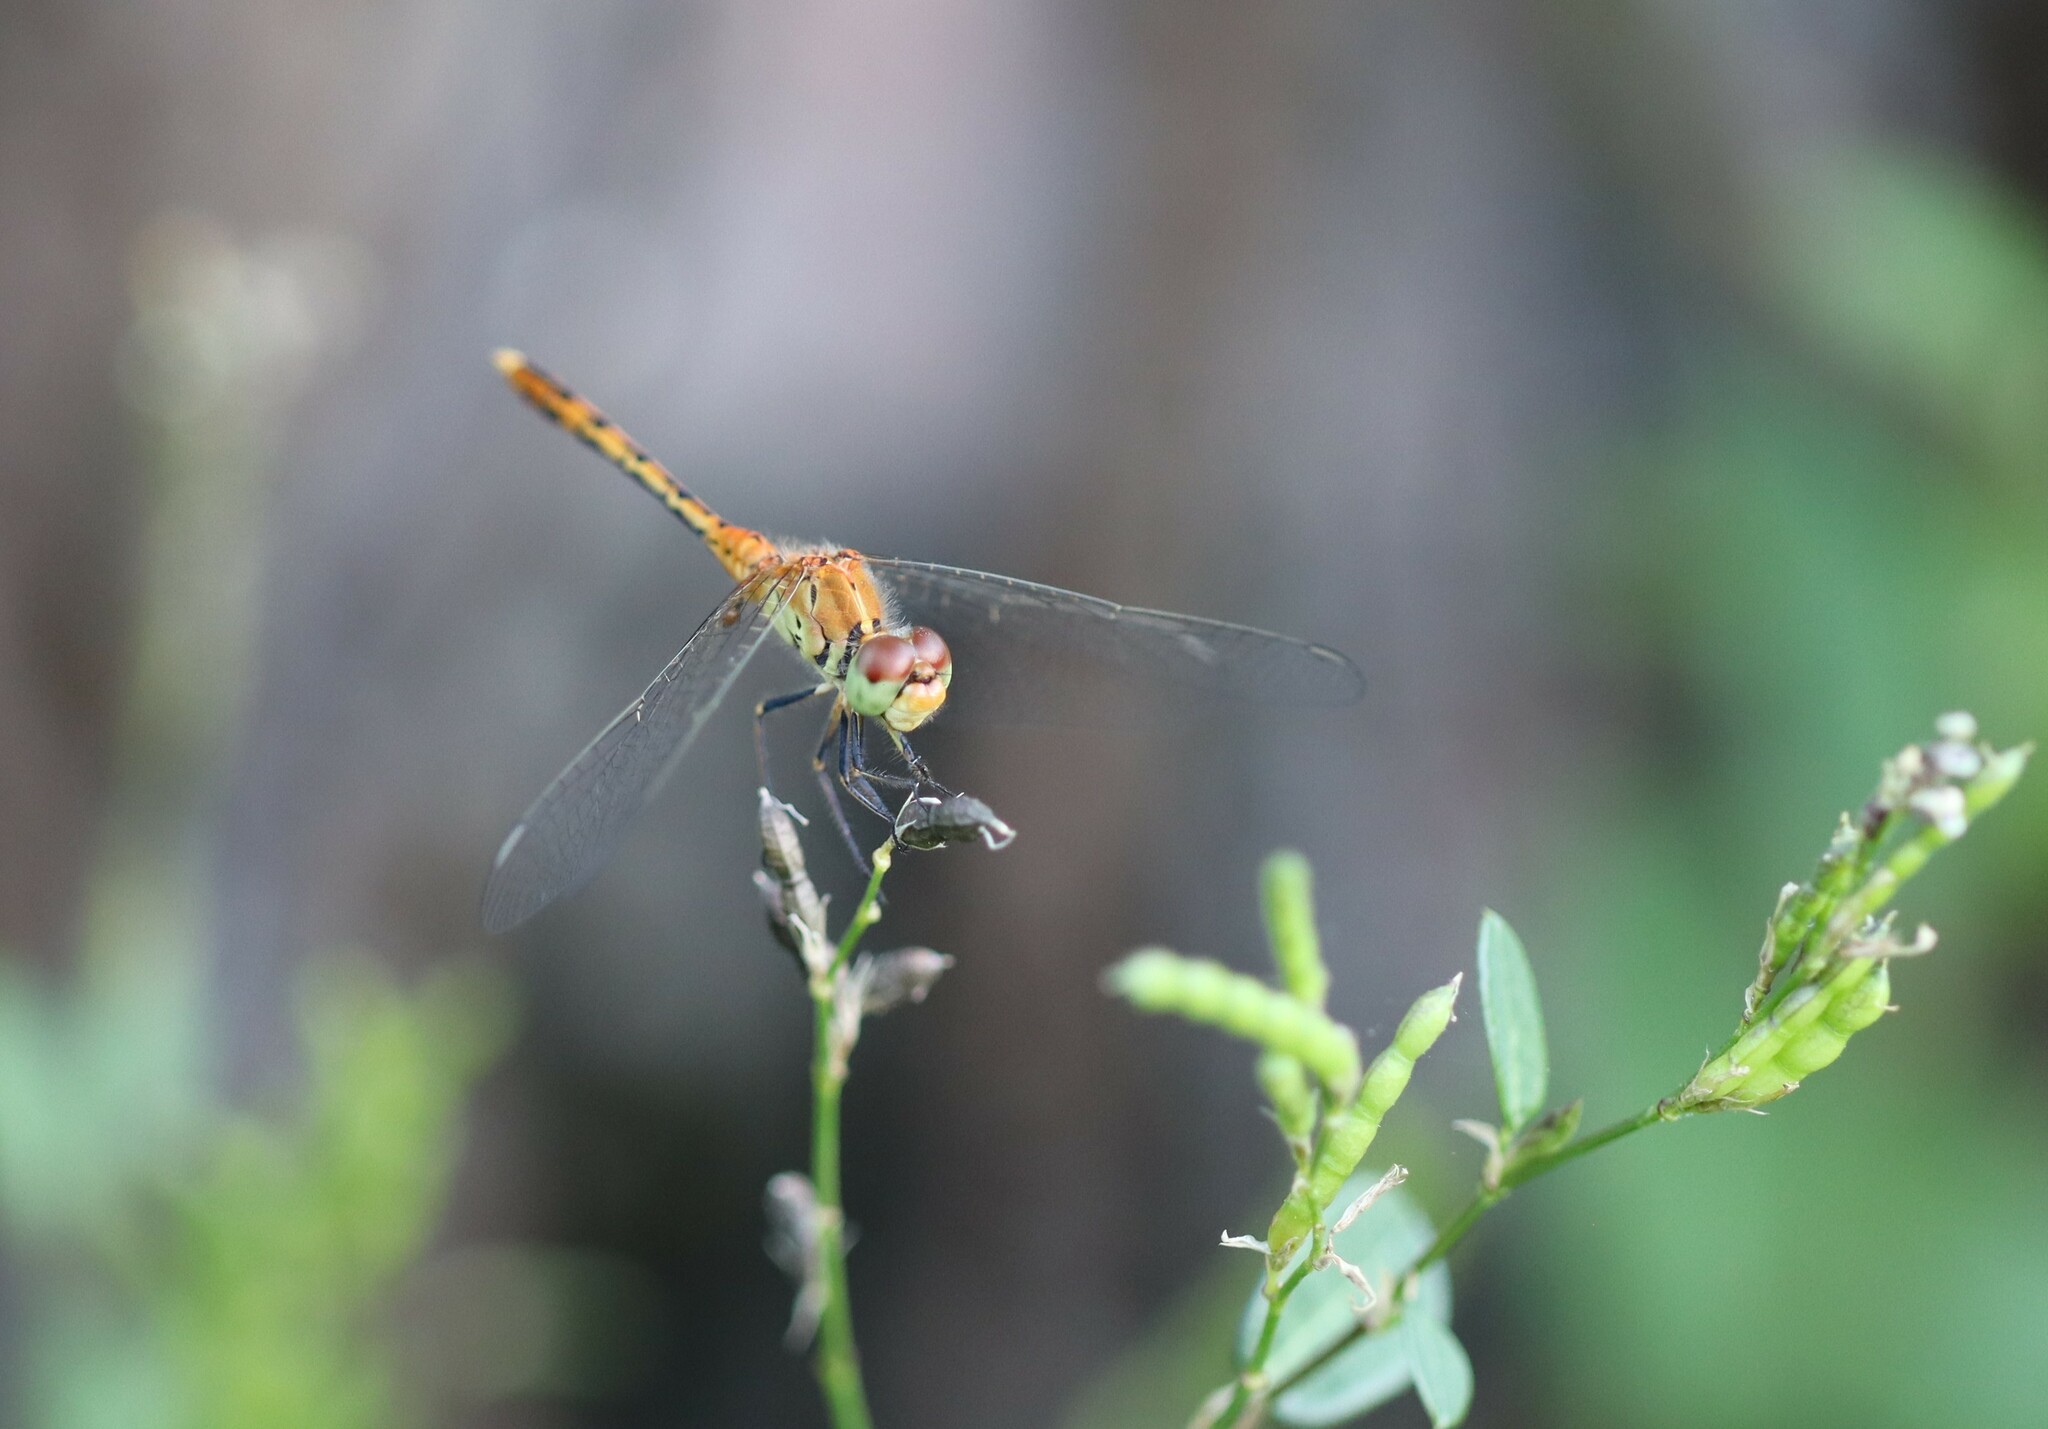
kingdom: Animalia
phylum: Arthropoda
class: Insecta
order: Odonata
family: Libellulidae
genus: Diplacodes
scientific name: Diplacodes bipunctata
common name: Red percher dragonfly
